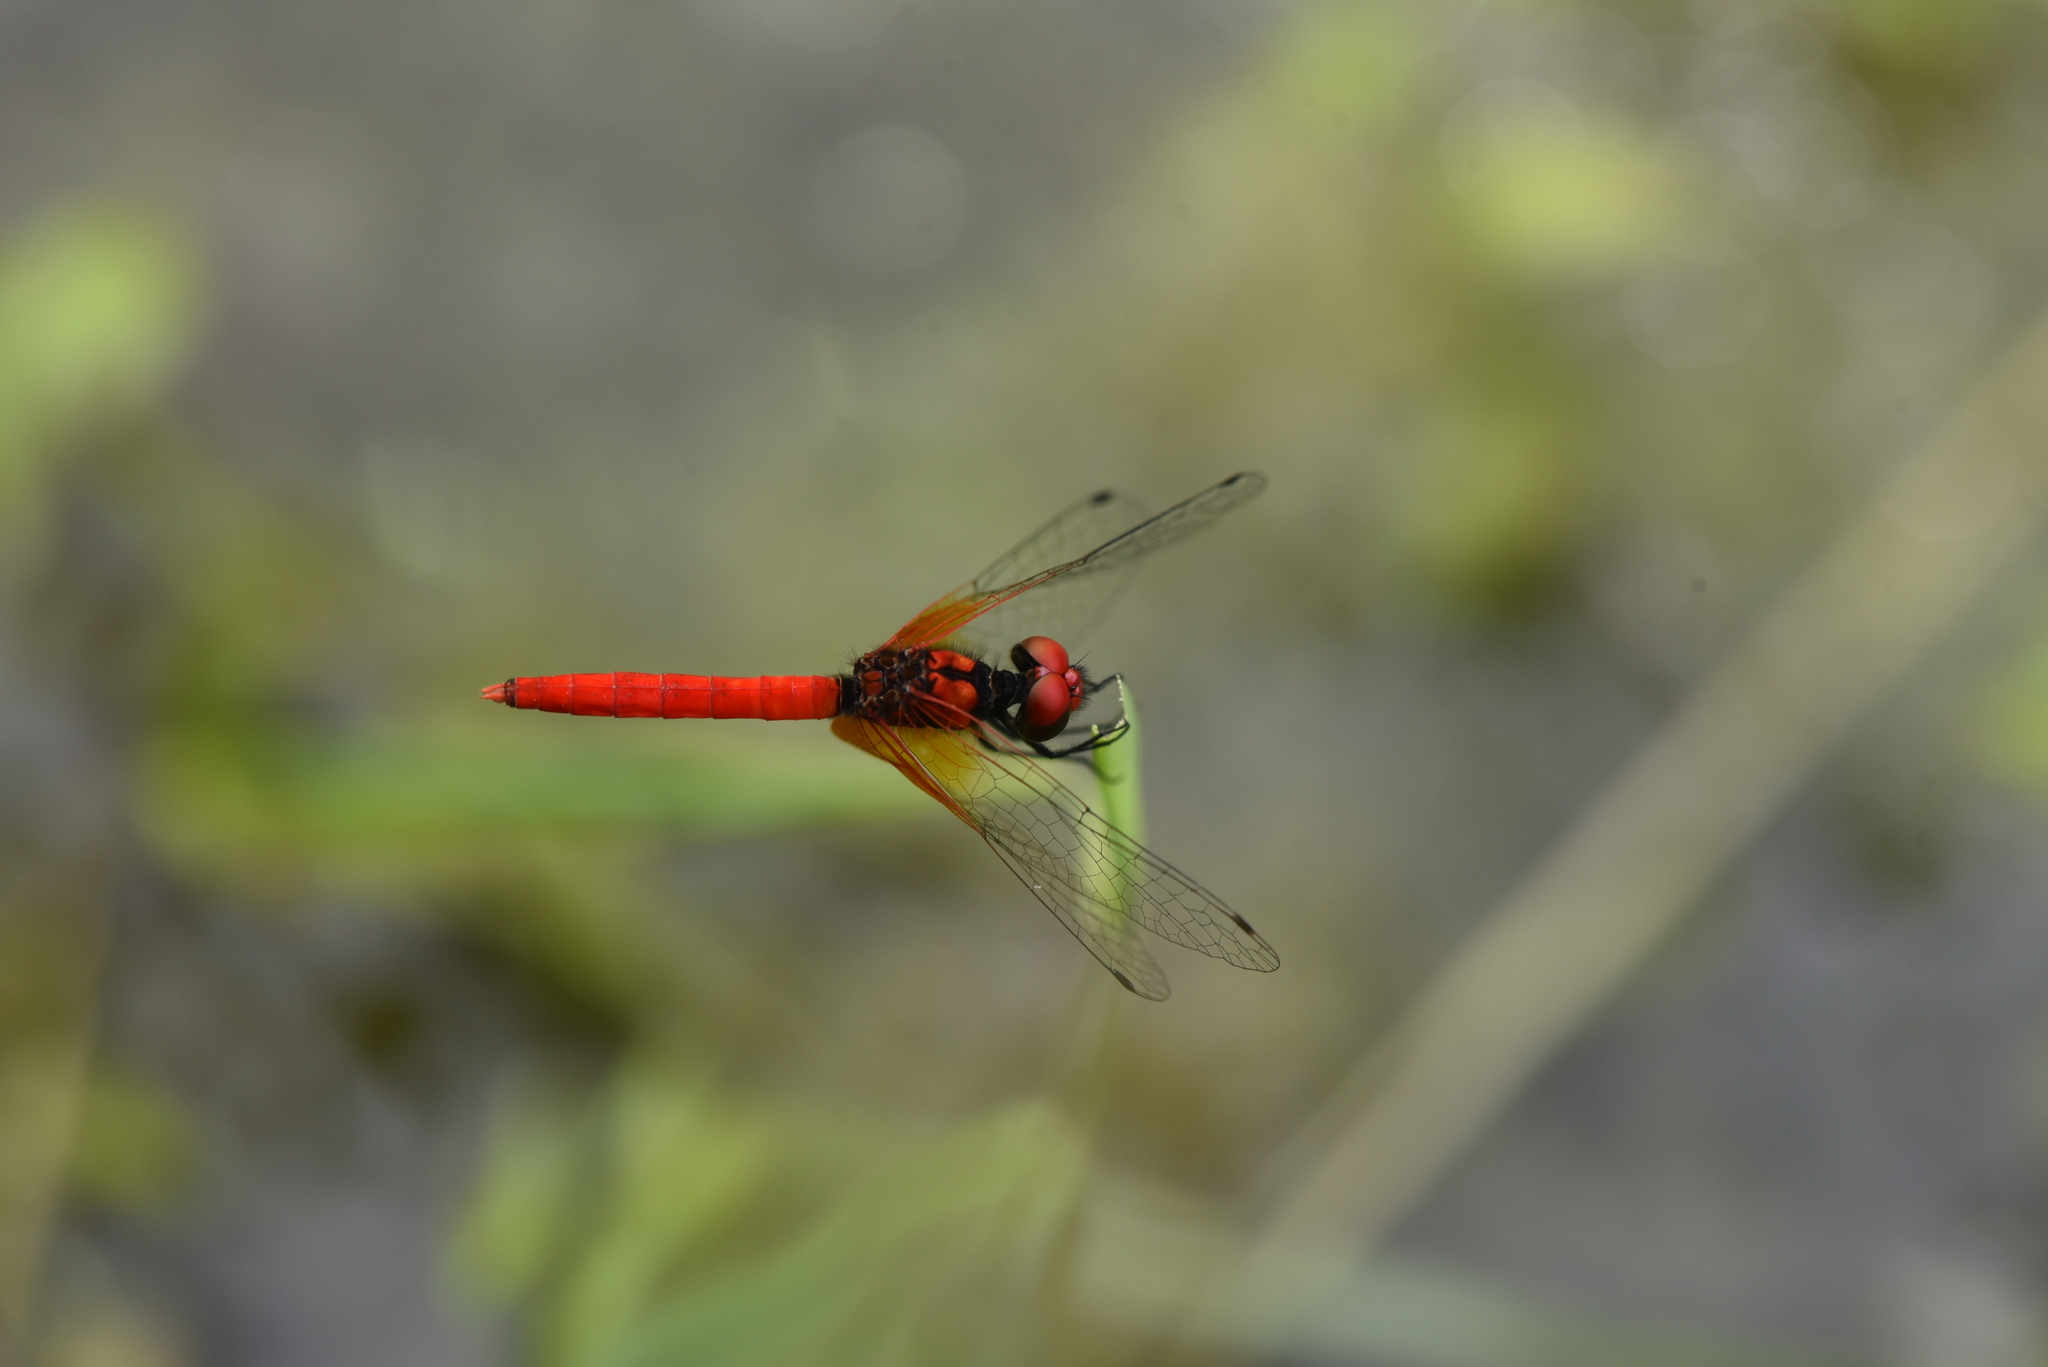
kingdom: Animalia
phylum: Arthropoda
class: Insecta
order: Odonata
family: Libellulidae
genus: Nannophya
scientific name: Nannophya pygmaea
